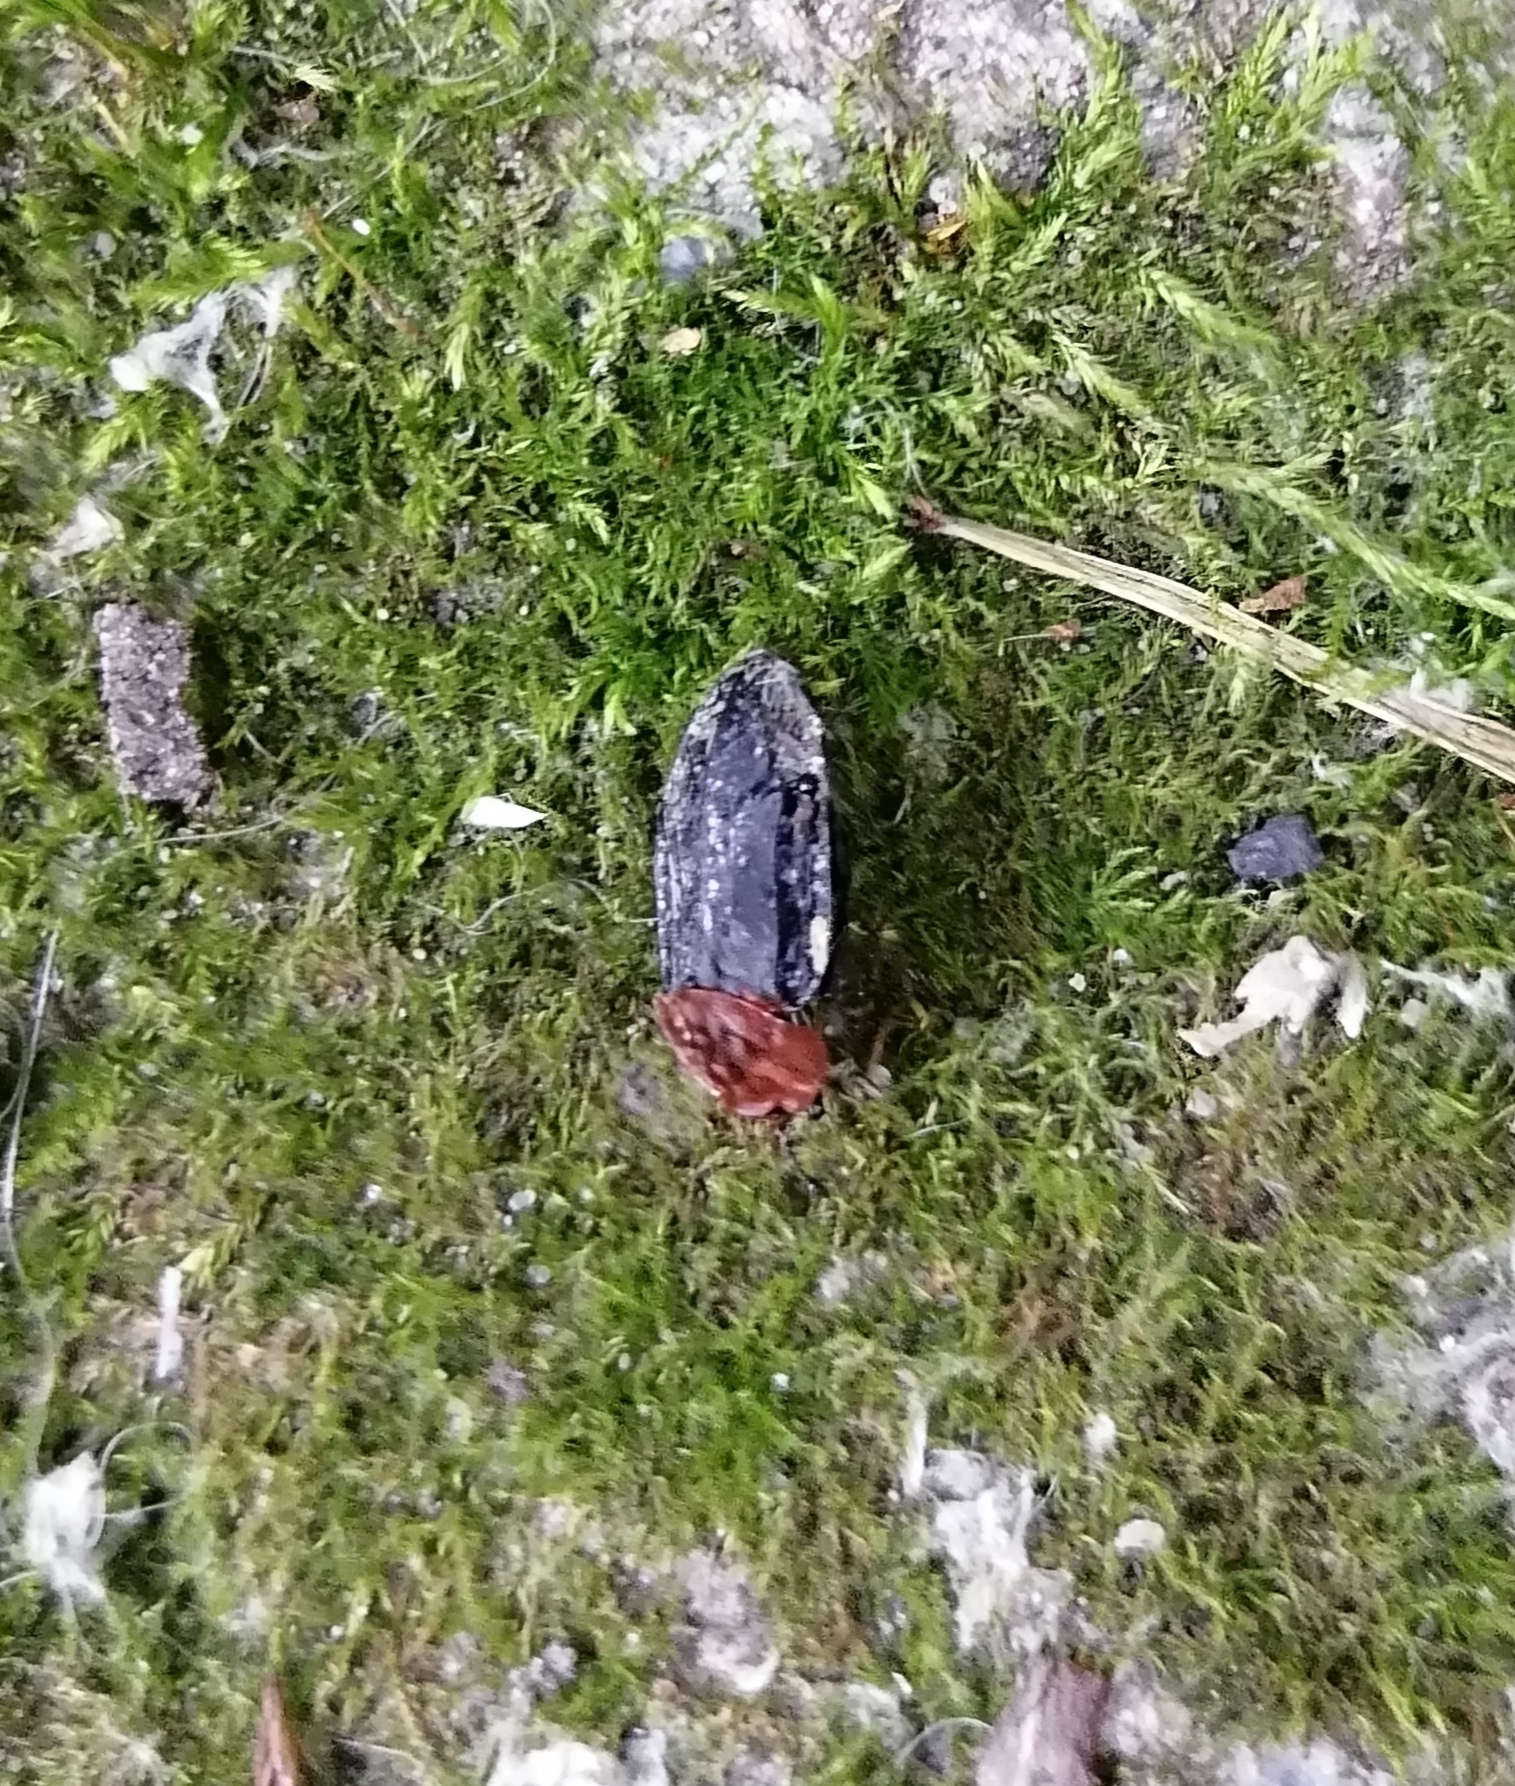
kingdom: Animalia
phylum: Arthropoda
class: Insecta
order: Coleoptera
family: Staphylinidae
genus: Oiceoptoma
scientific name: Oiceoptoma thoracicum
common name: Red-breasted carrion beetle
